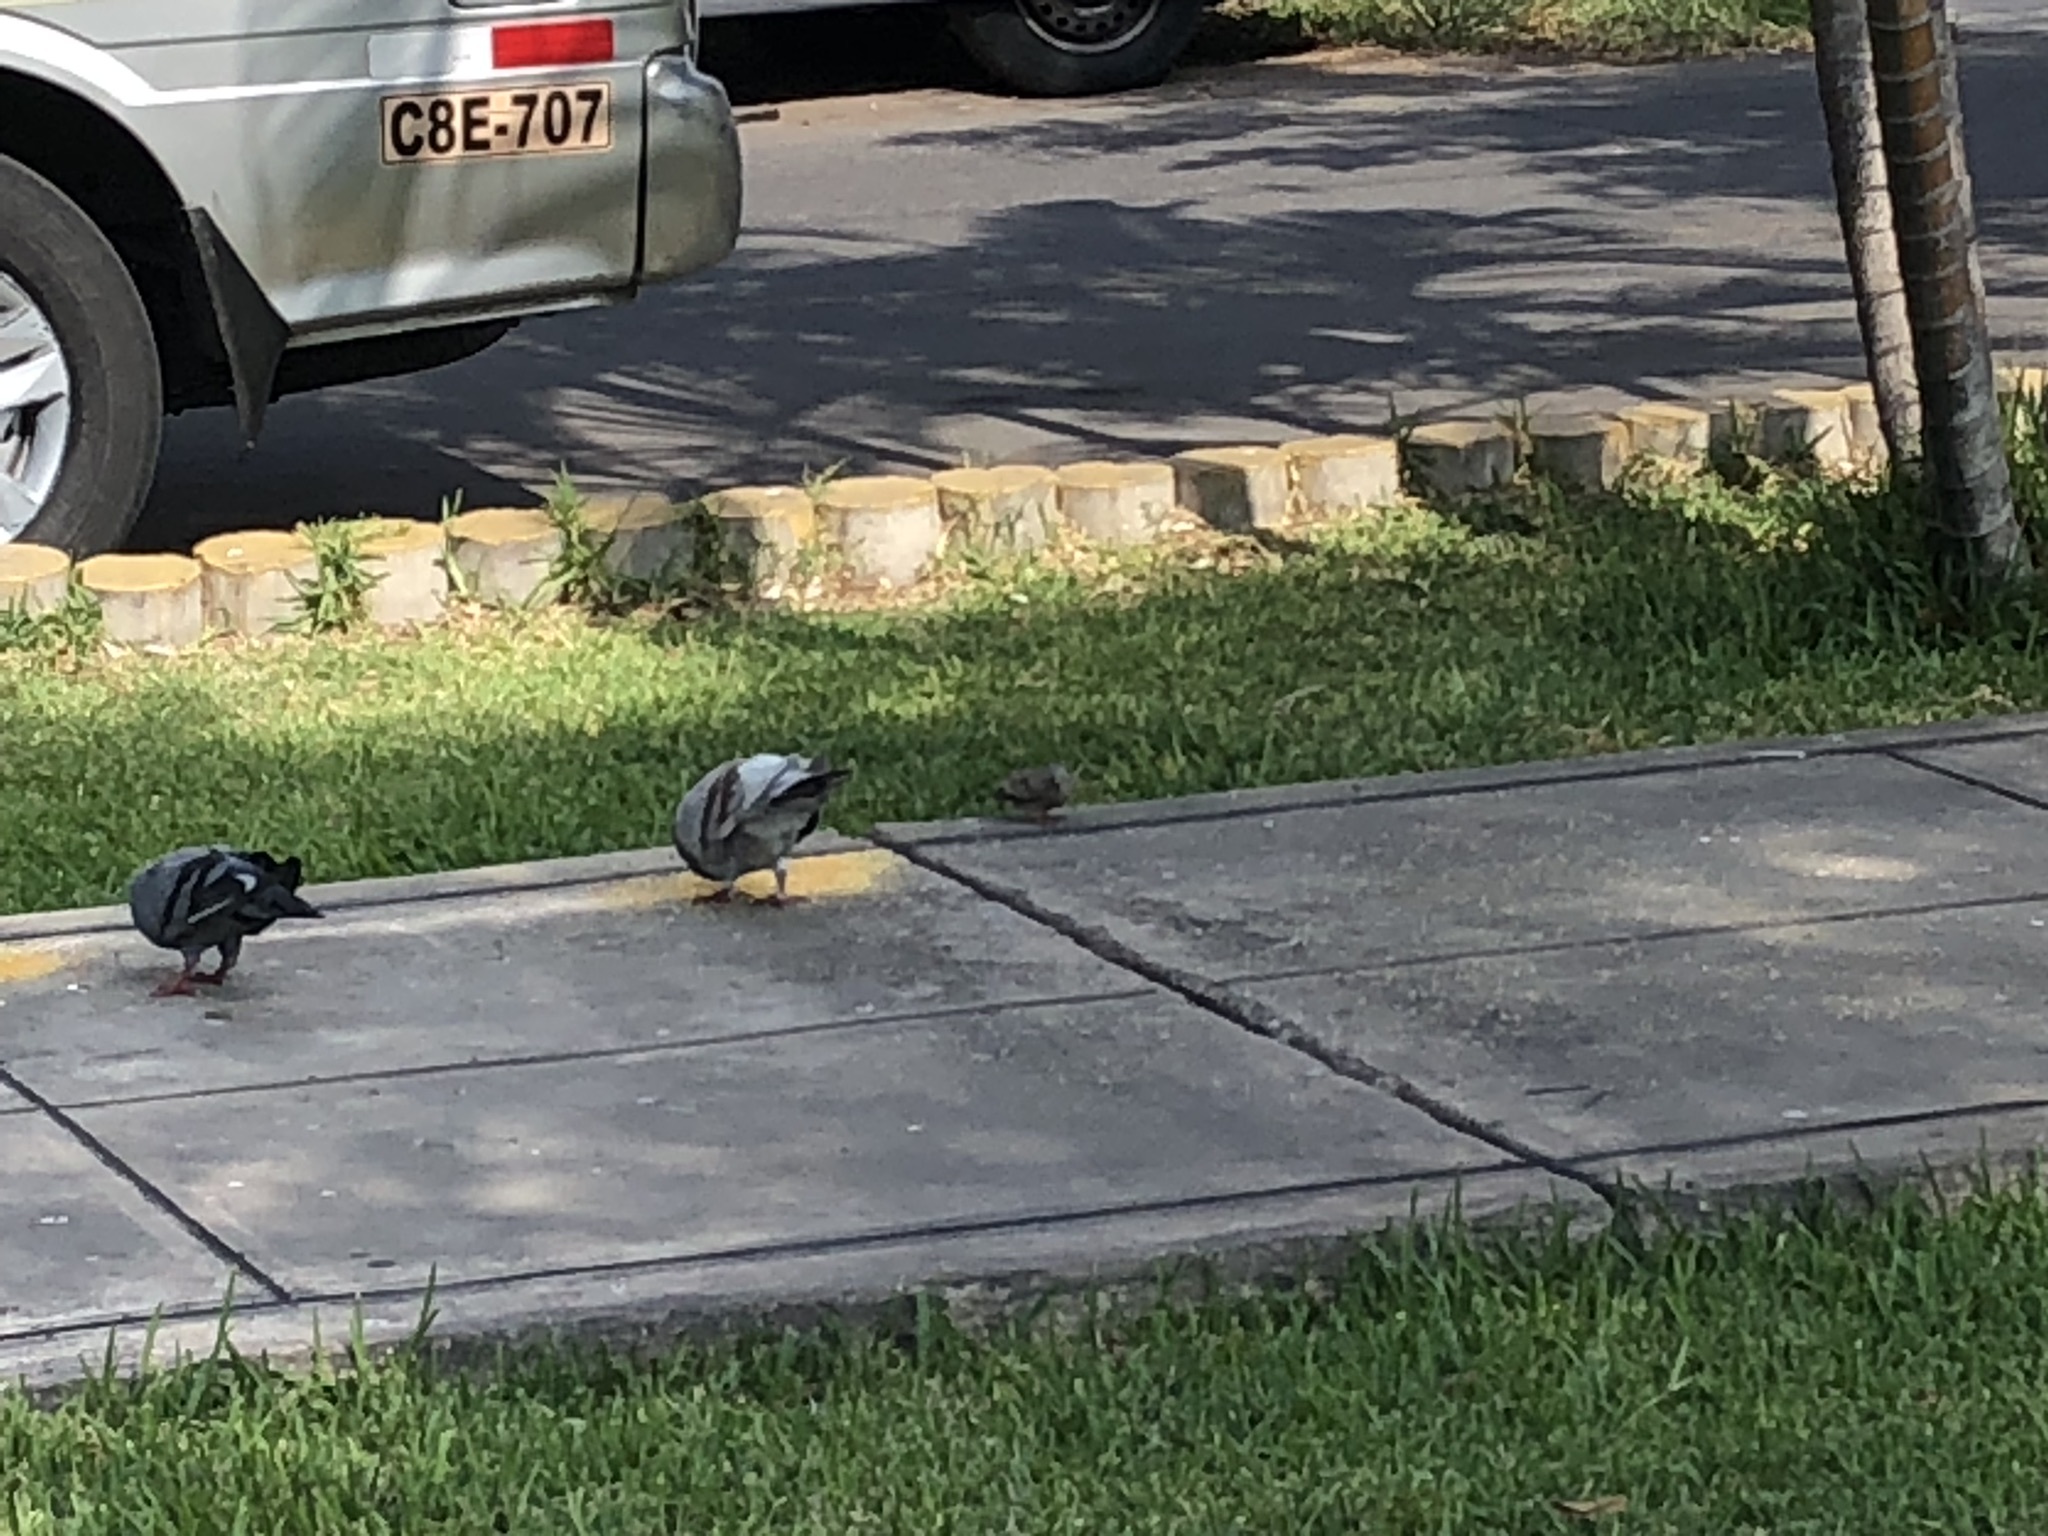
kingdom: Animalia
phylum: Chordata
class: Aves
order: Columbiformes
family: Columbidae
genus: Columba
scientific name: Columba livia
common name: Rock pigeon
